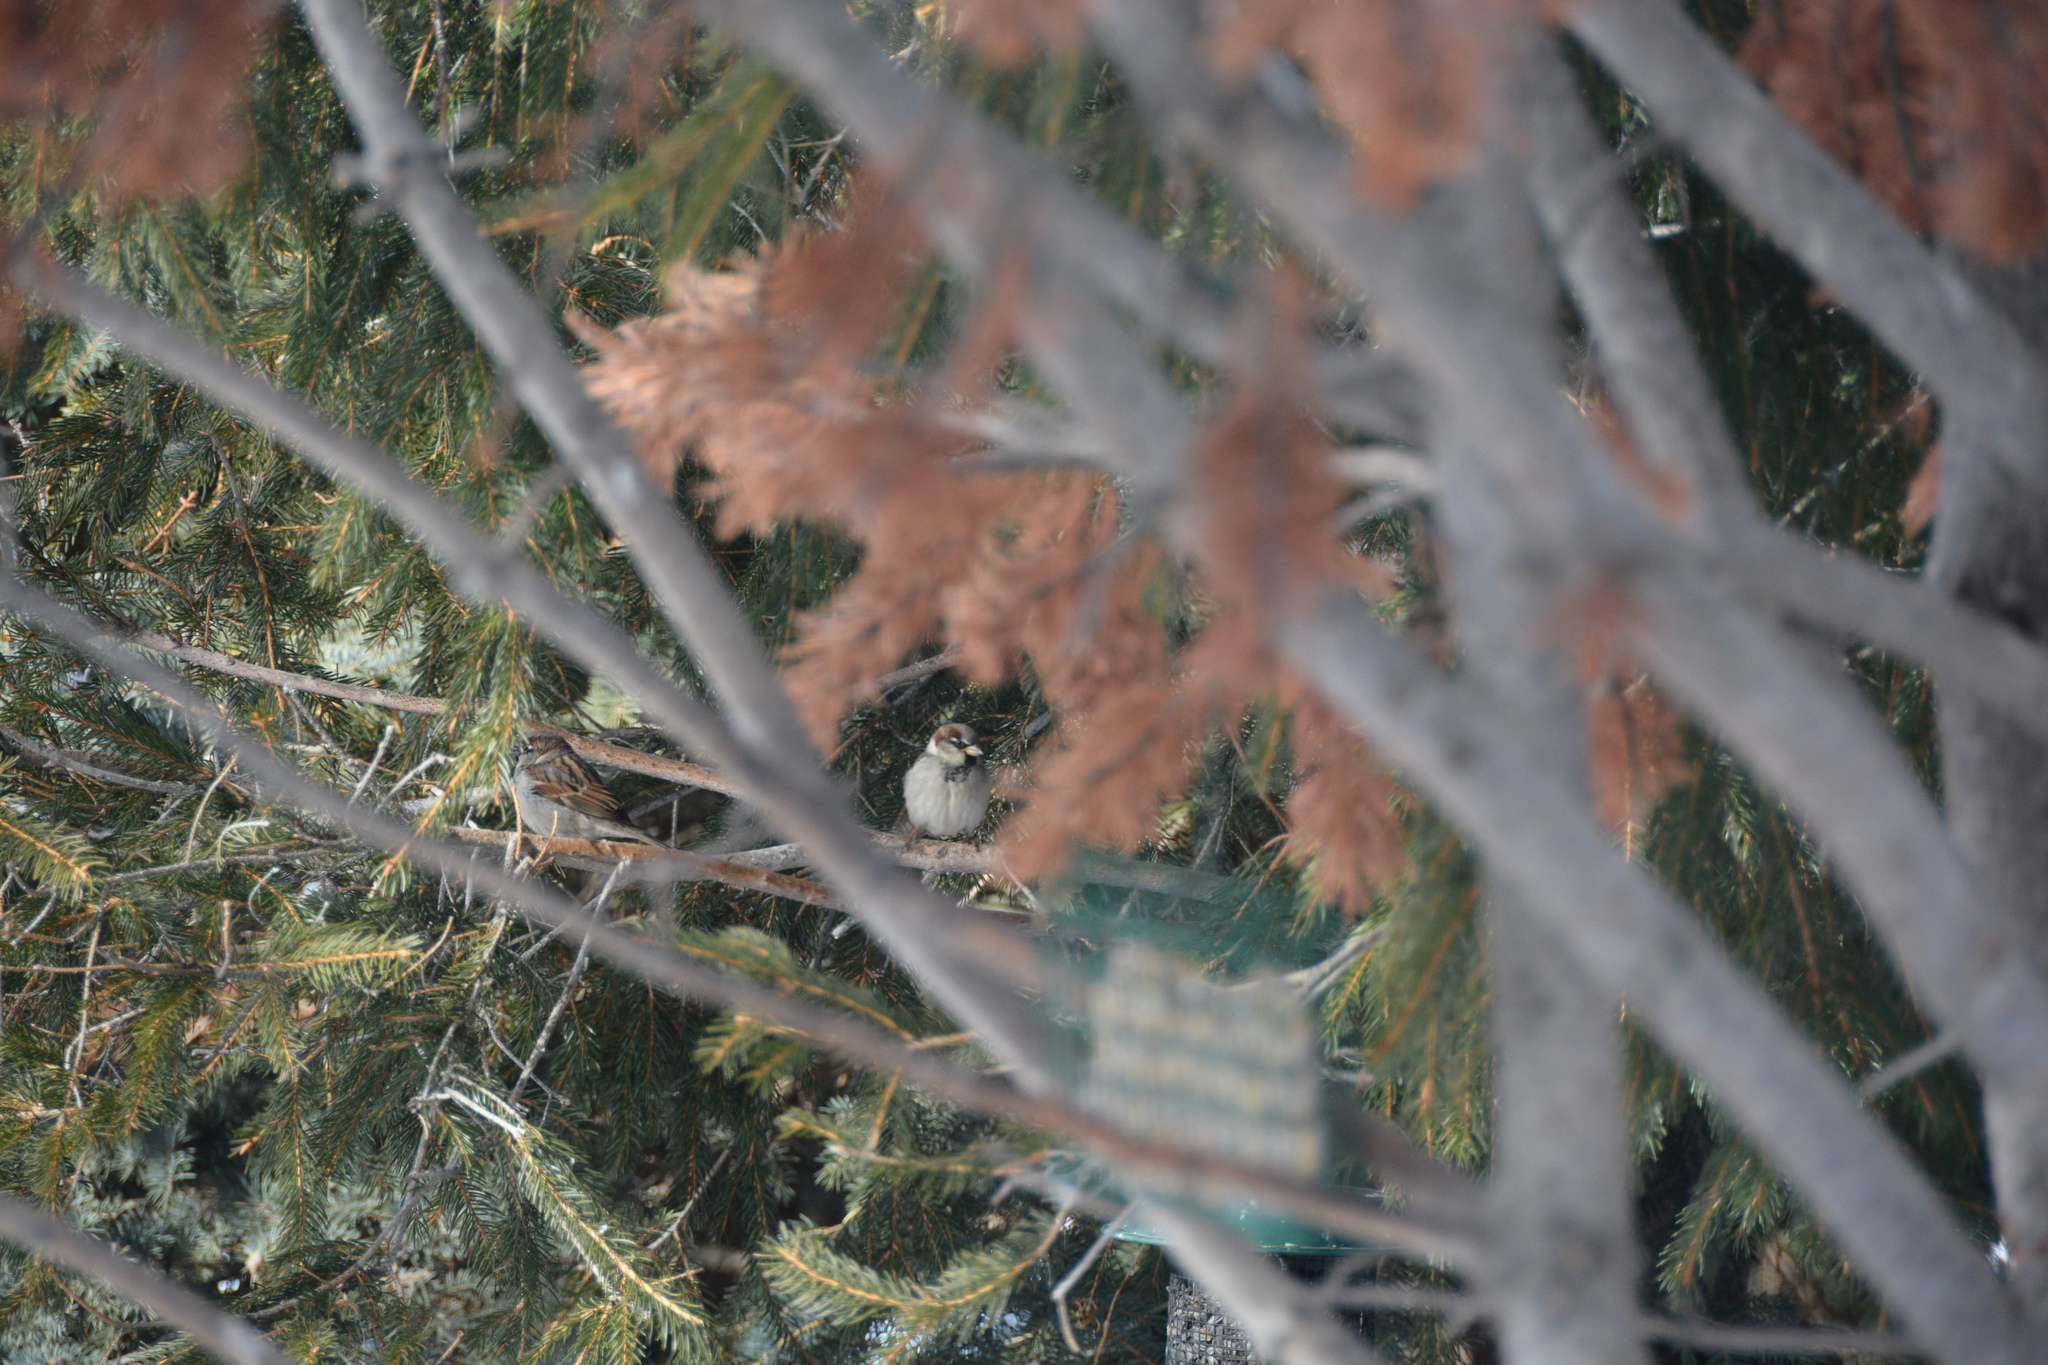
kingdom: Animalia
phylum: Chordata
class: Aves
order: Passeriformes
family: Passeridae
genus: Passer
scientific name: Passer domesticus
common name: House sparrow
